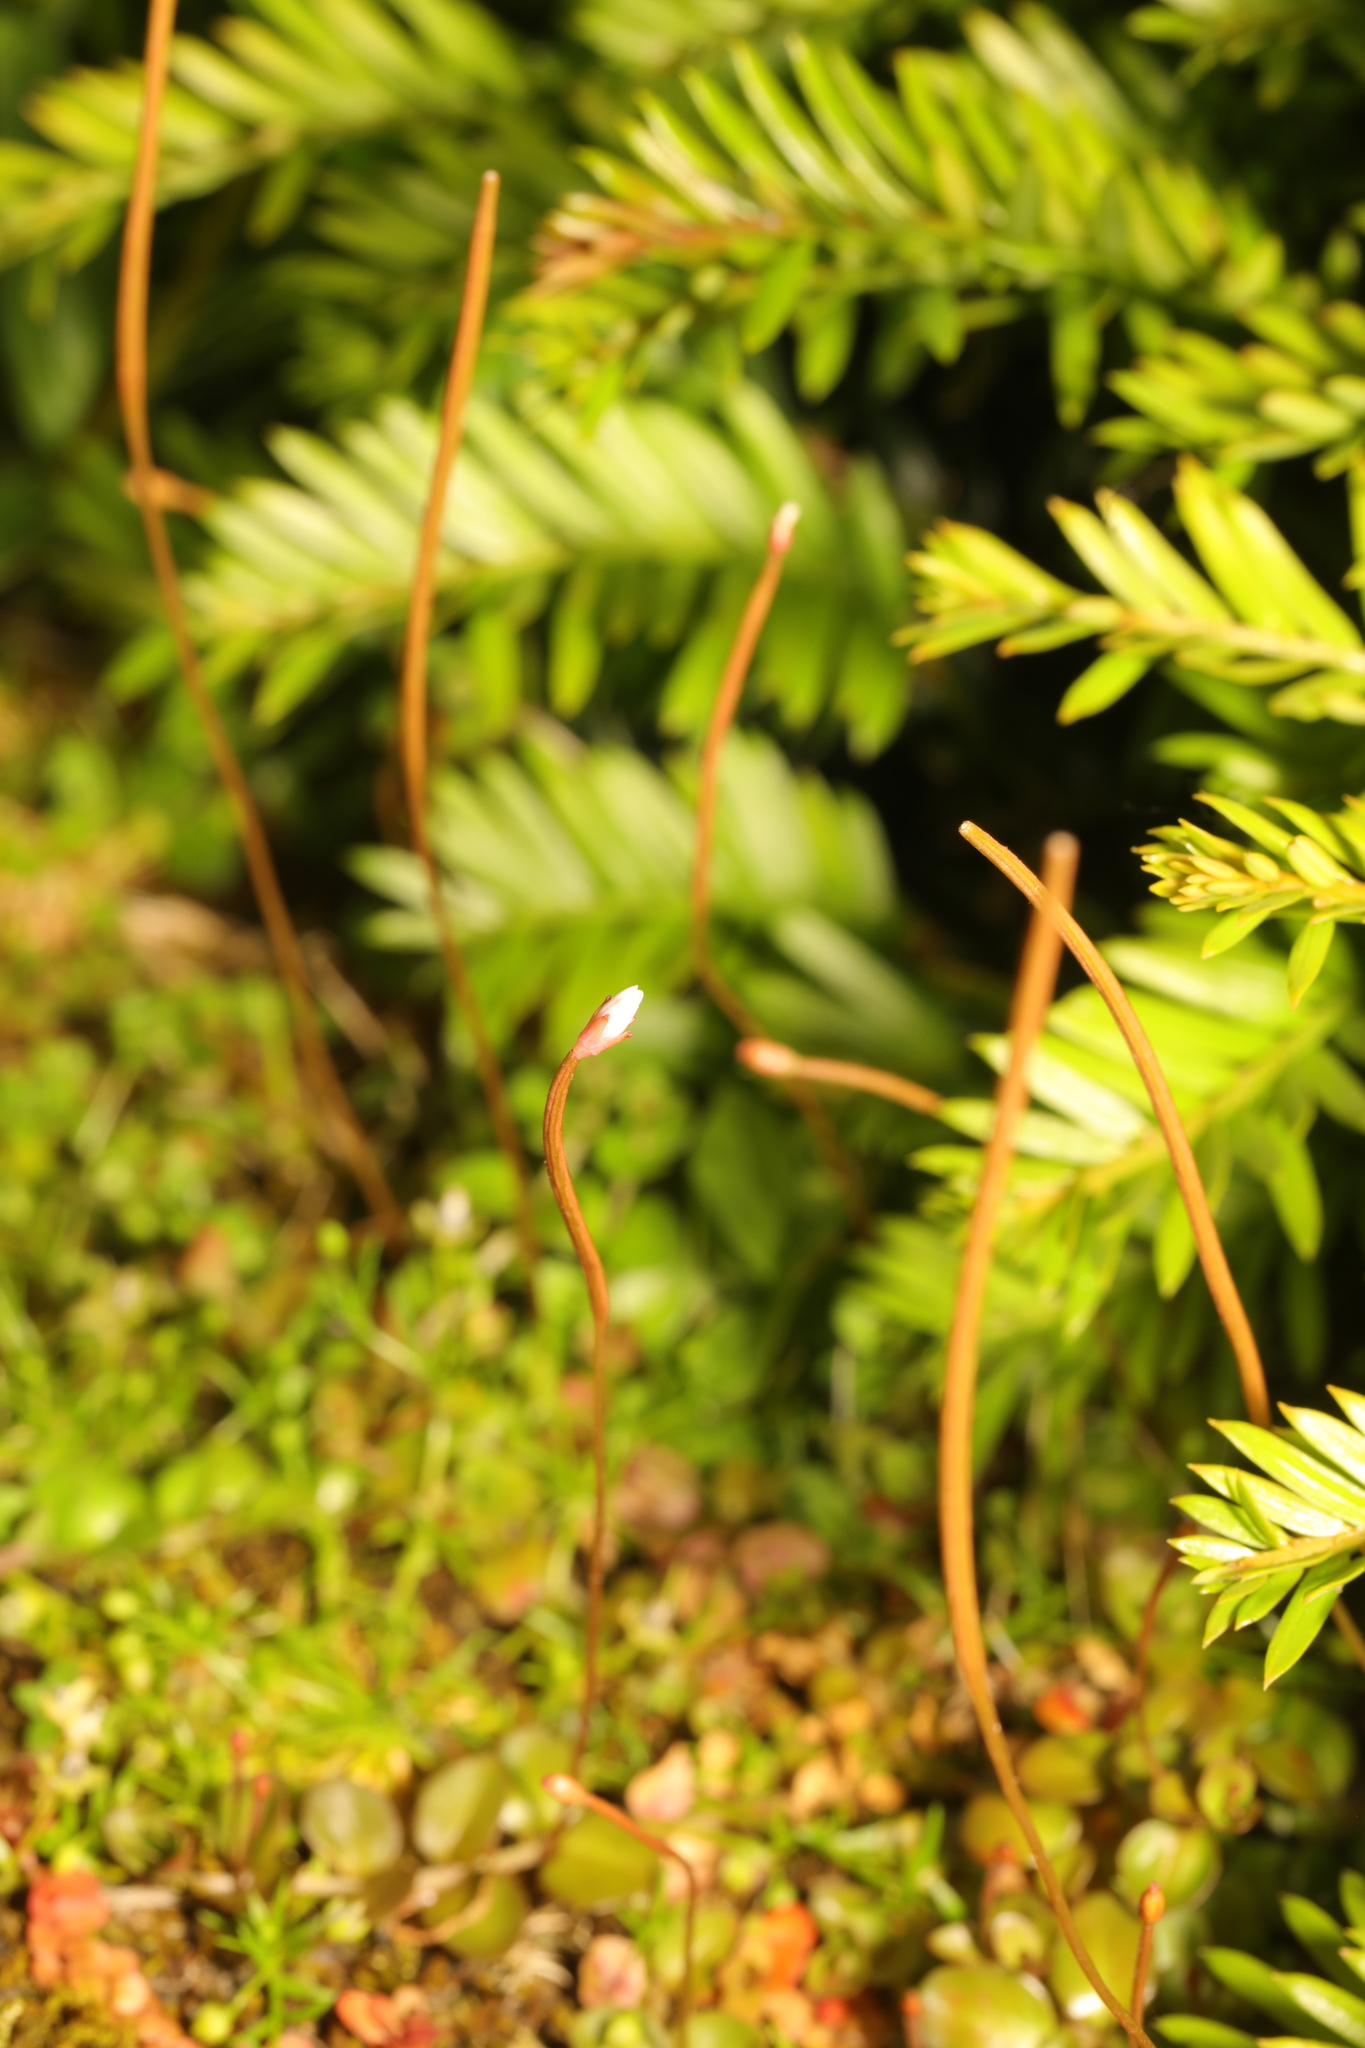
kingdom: Plantae
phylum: Tracheophyta
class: Magnoliopsida
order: Myrtales
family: Onagraceae
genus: Epilobium
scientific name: Epilobium brunnescens
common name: New zealand willowherb
